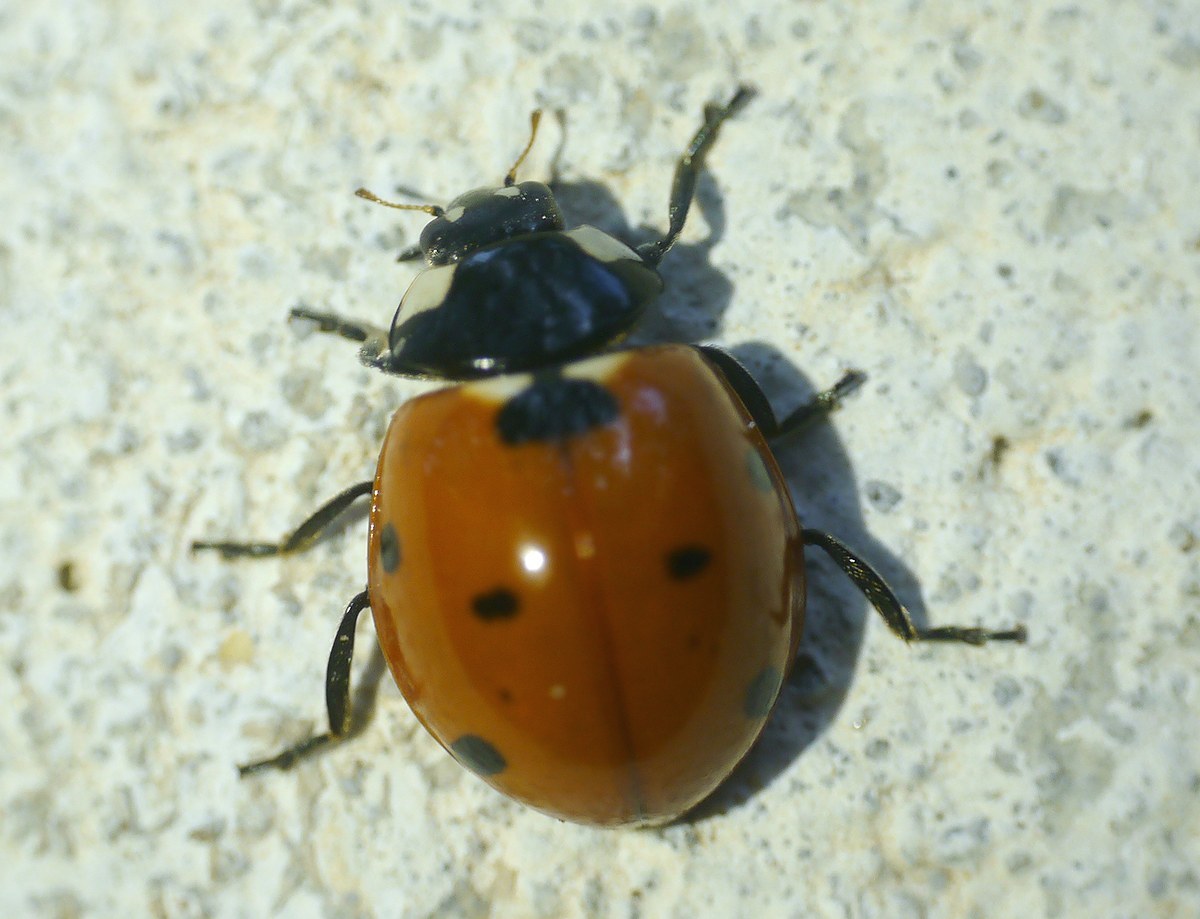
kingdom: Animalia
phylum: Arthropoda
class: Insecta
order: Coleoptera
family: Coccinellidae
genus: Coccinella
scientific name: Coccinella septempunctata
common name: Sevenspotted lady beetle
